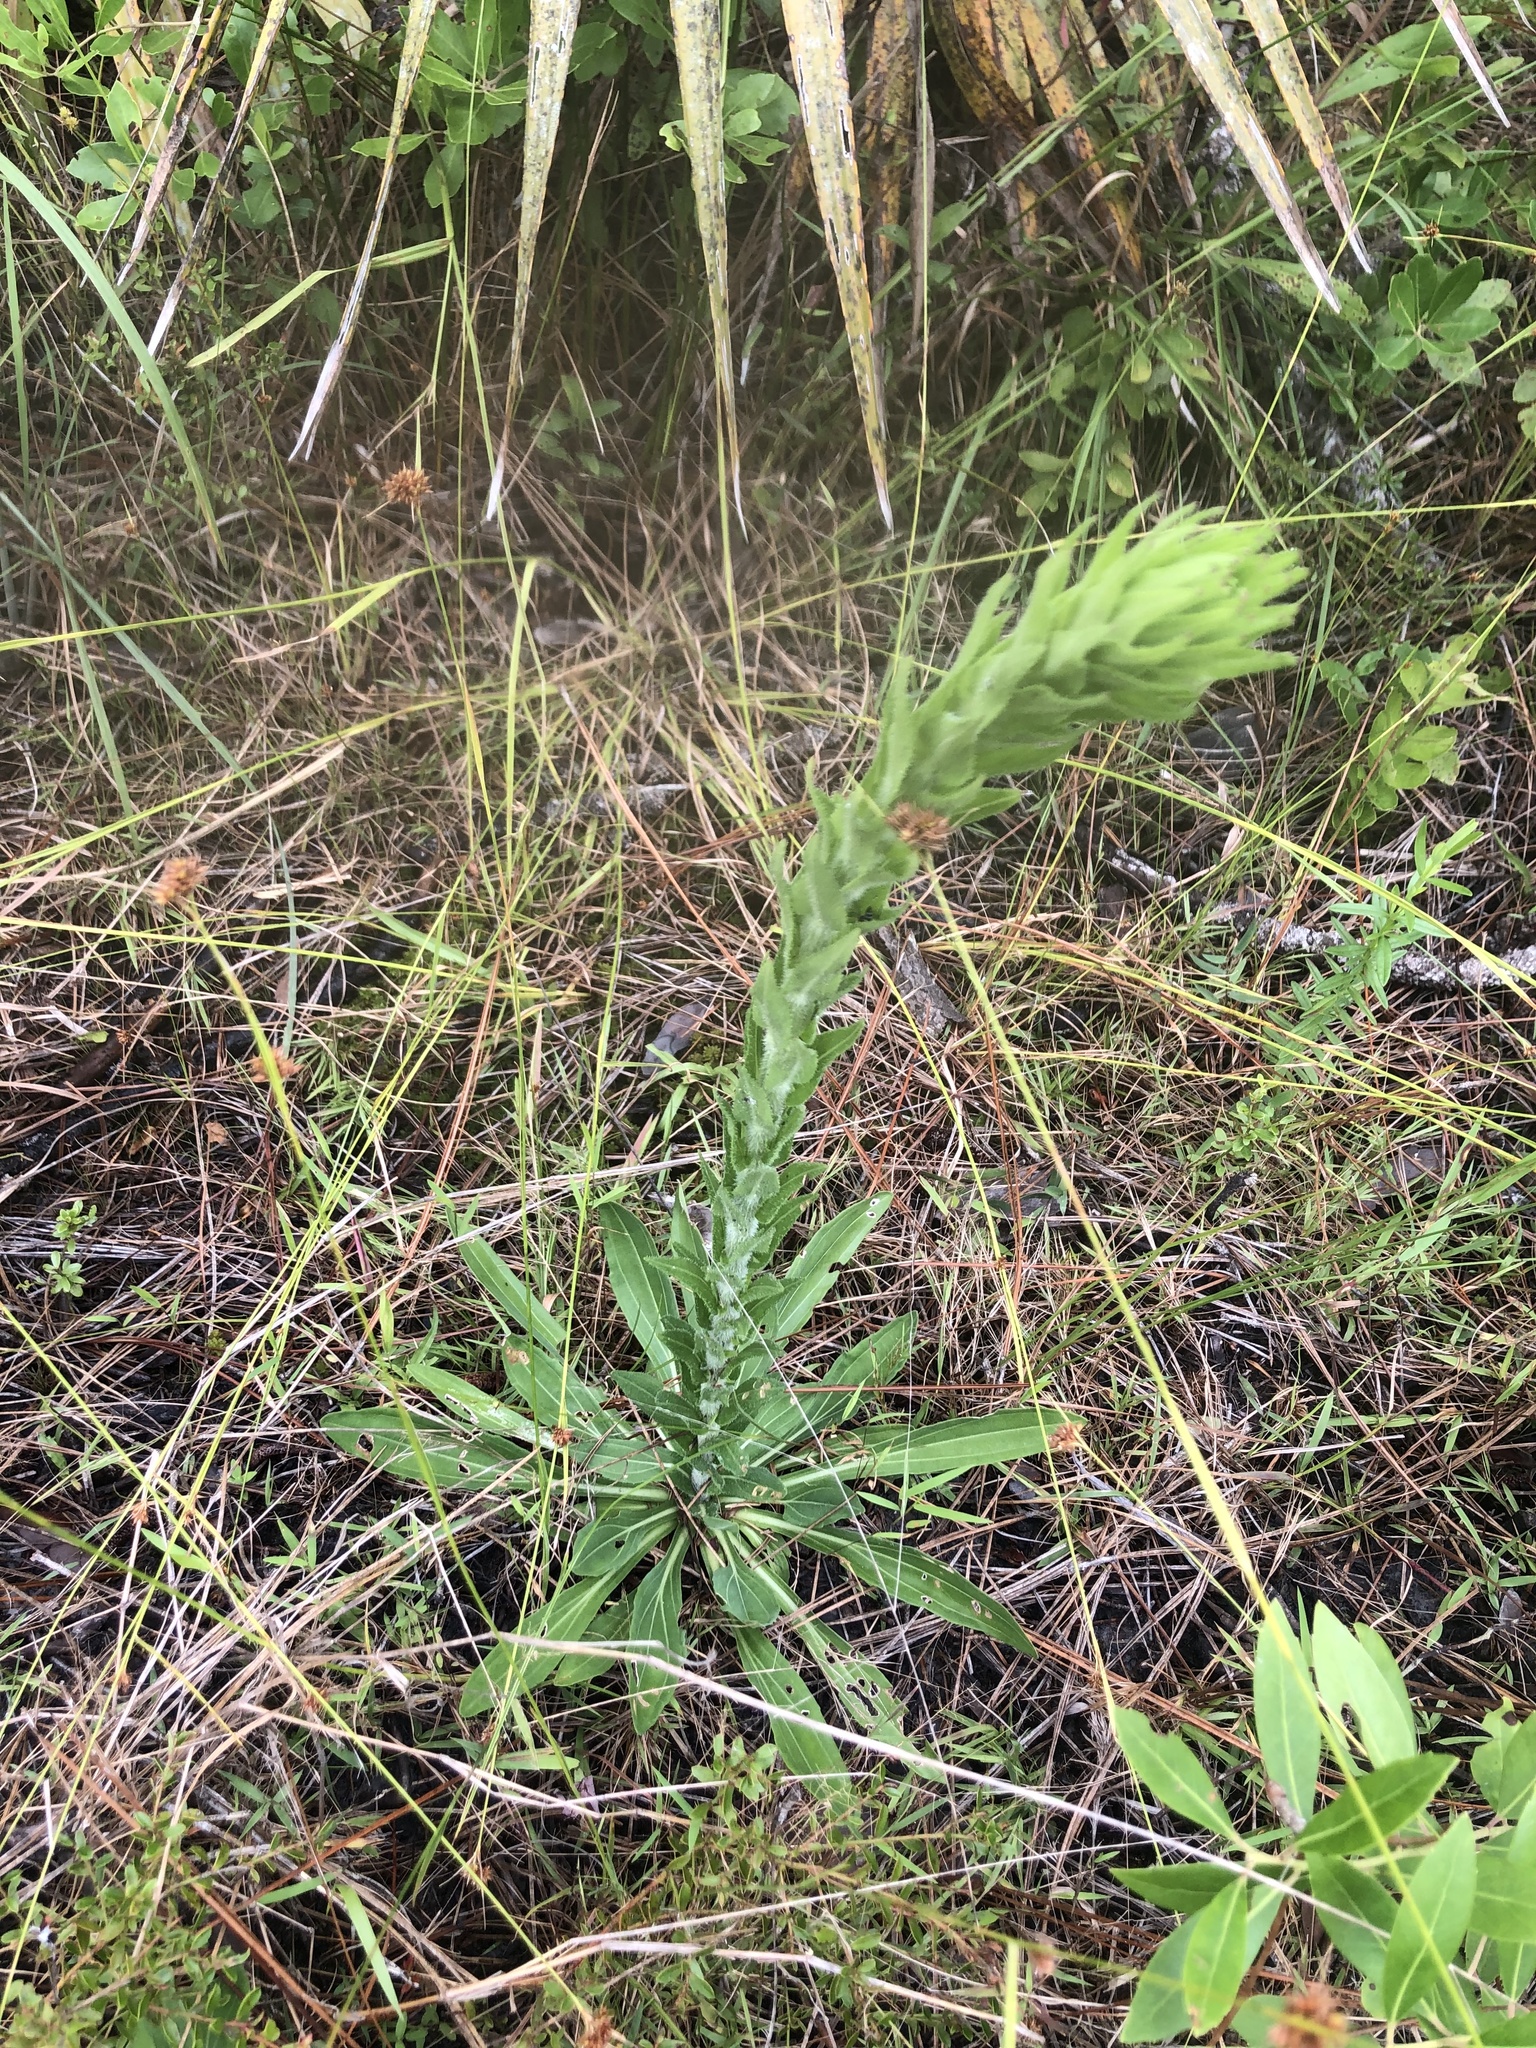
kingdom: Plantae
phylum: Tracheophyta
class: Magnoliopsida
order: Asterales
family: Asteraceae
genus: Carphephorus
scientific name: Carphephorus paniculatus
